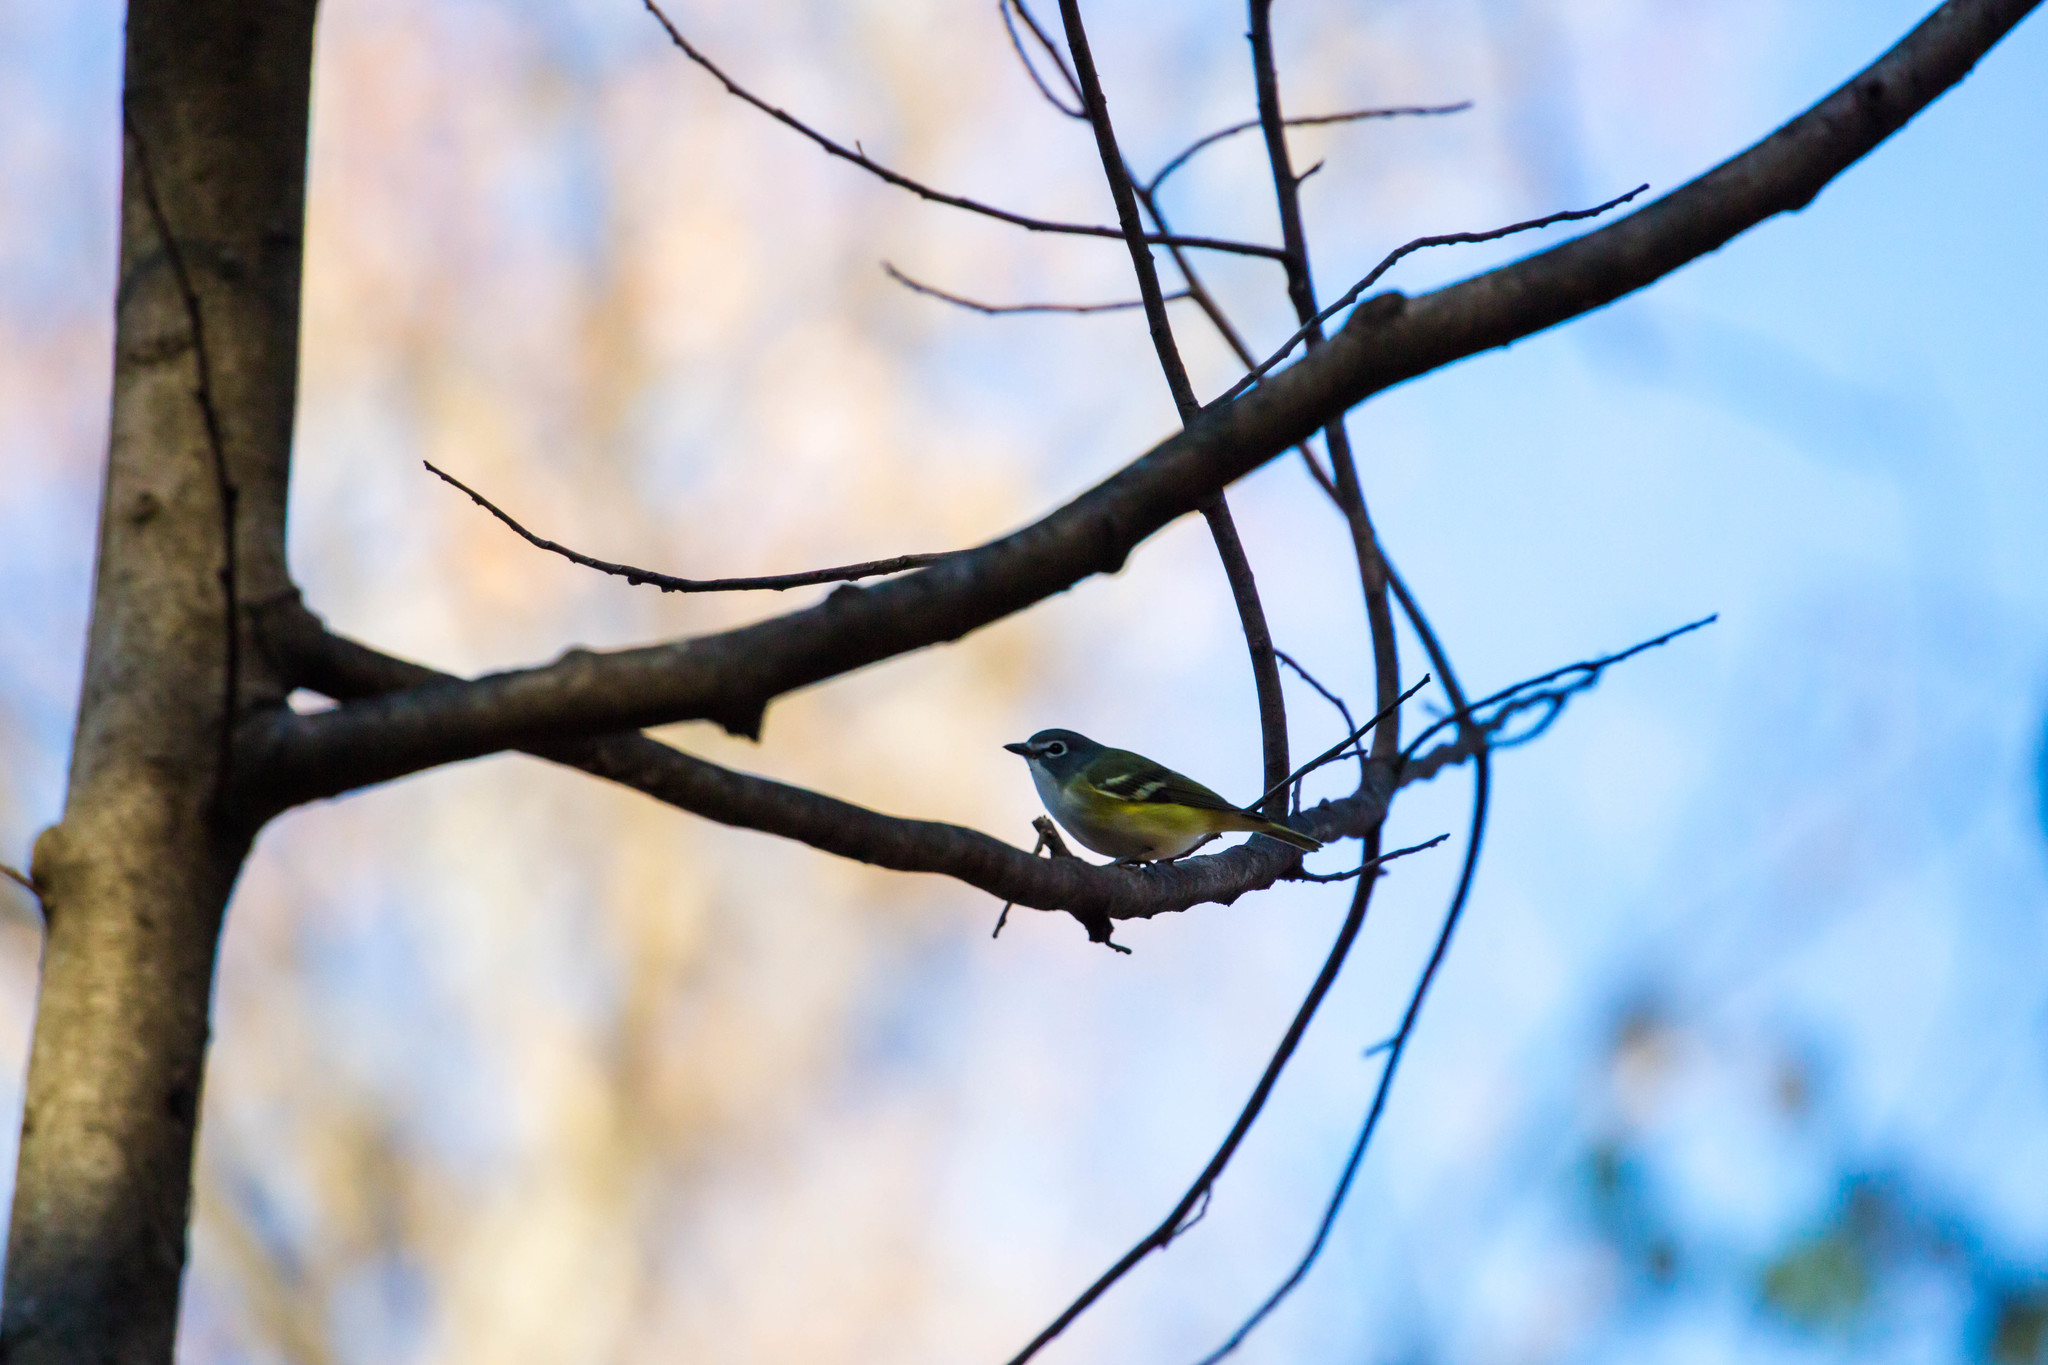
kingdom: Animalia
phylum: Chordata
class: Aves
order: Passeriformes
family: Vireonidae
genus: Vireo
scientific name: Vireo solitarius
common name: Blue-headed vireo
